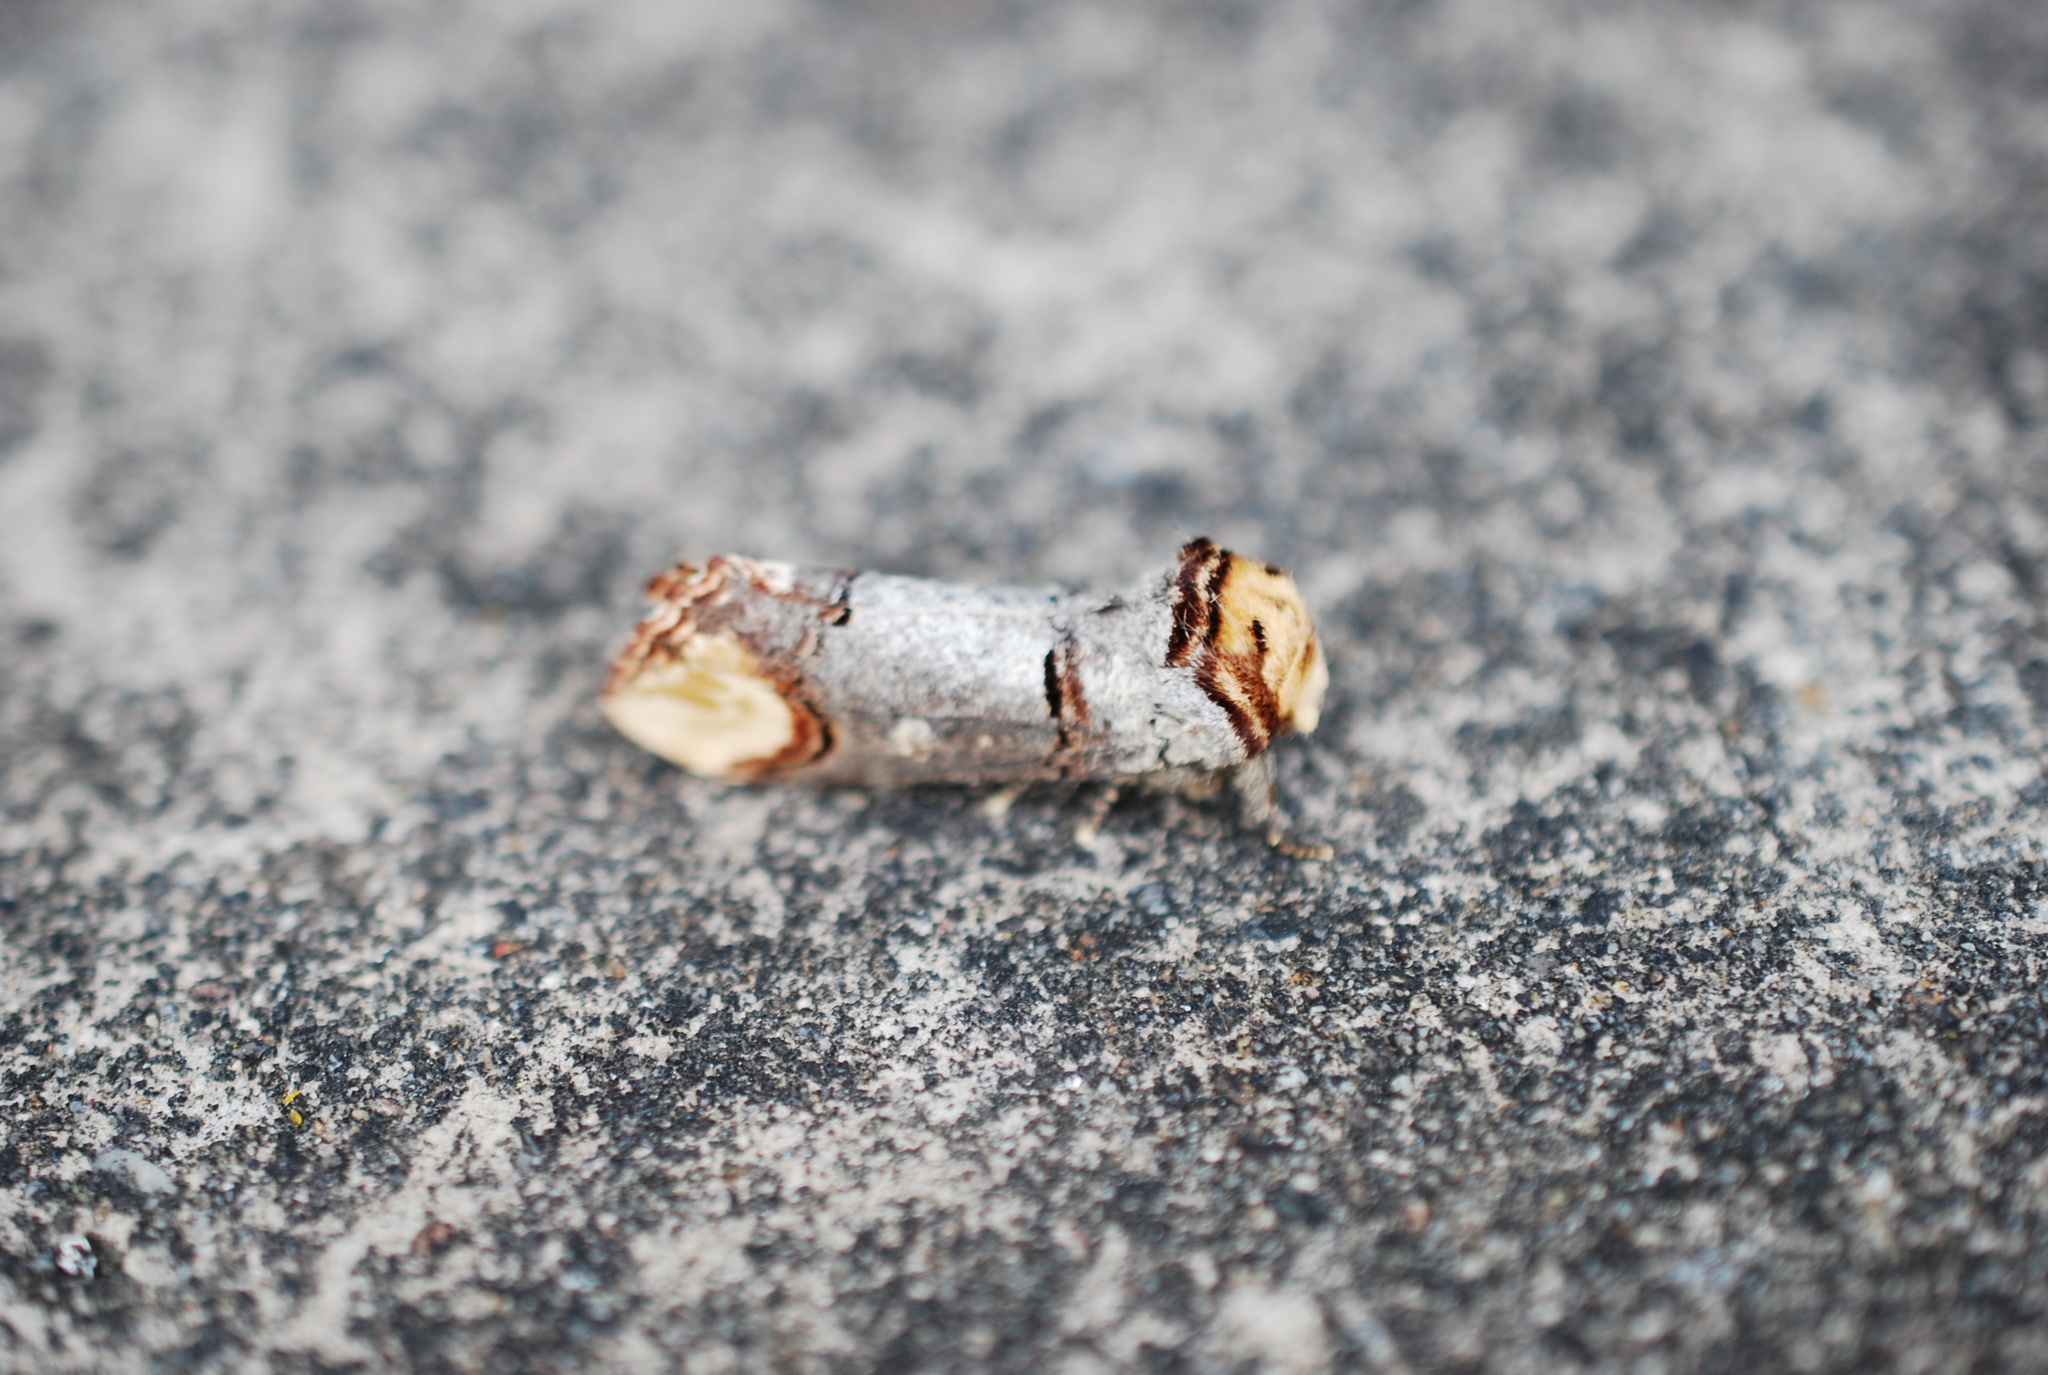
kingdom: Animalia
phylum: Arthropoda
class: Insecta
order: Lepidoptera
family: Notodontidae
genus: Phalera
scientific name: Phalera bucephala
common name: Buff-tip
